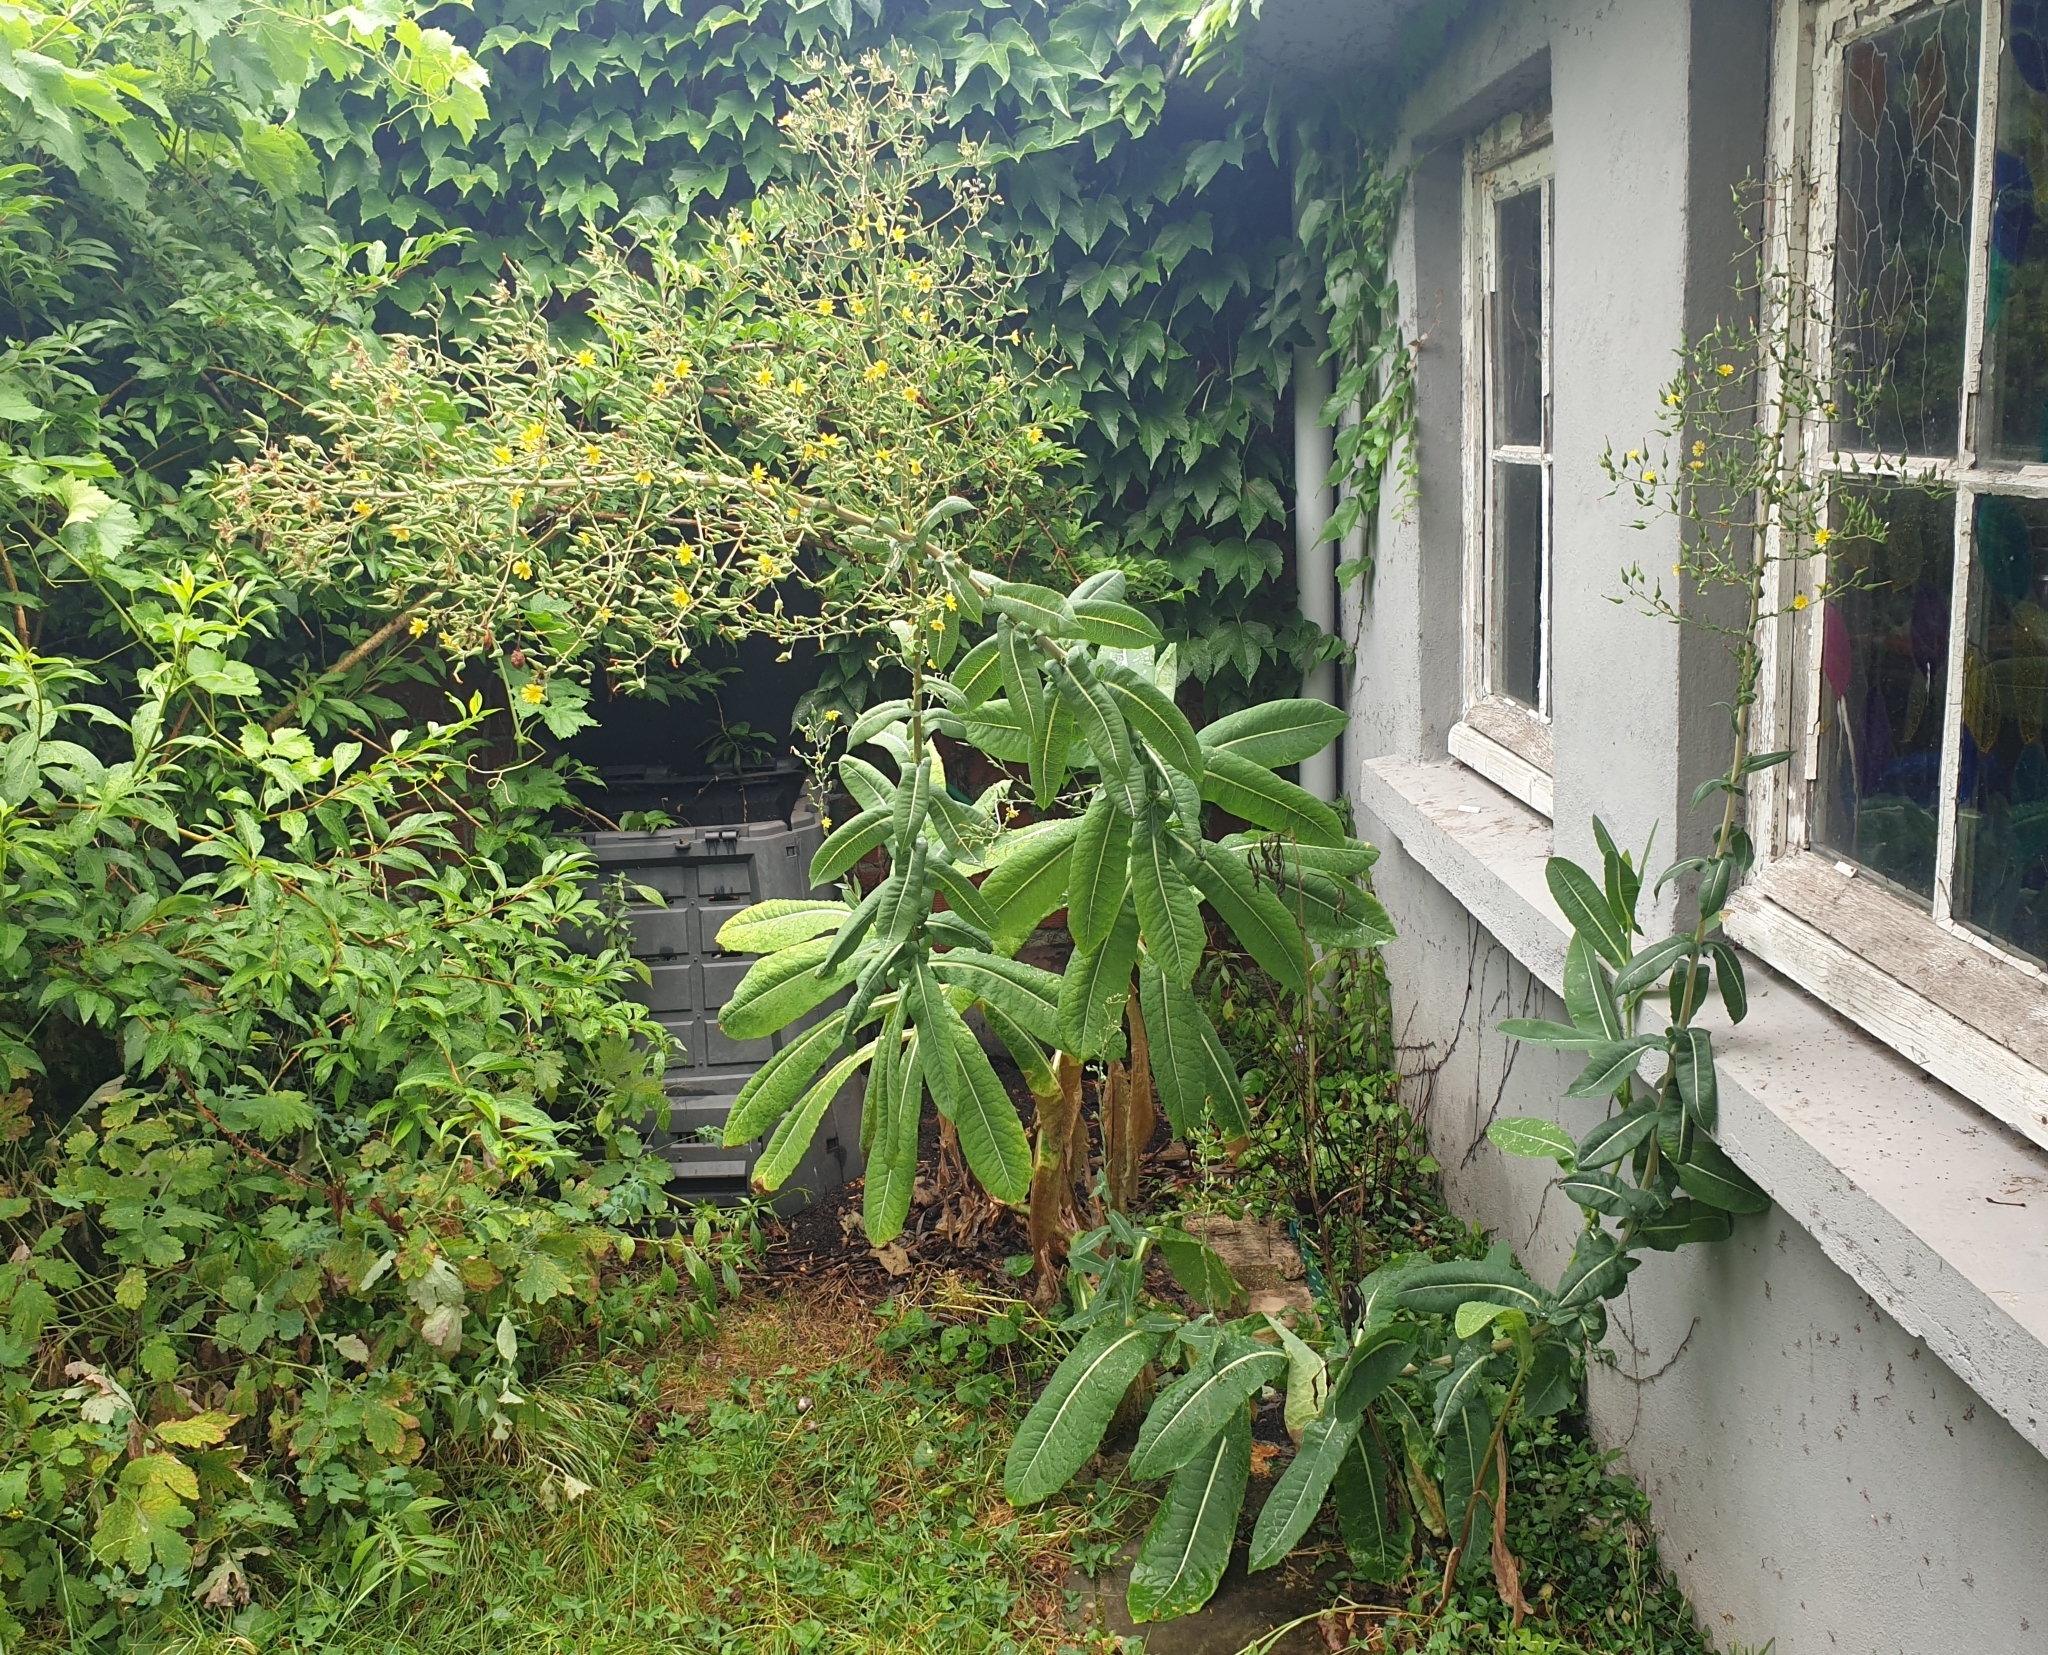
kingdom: Plantae
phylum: Tracheophyta
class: Magnoliopsida
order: Asterales
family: Asteraceae
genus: Lactuca
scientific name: Lactuca virosa
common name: Great lettuce
